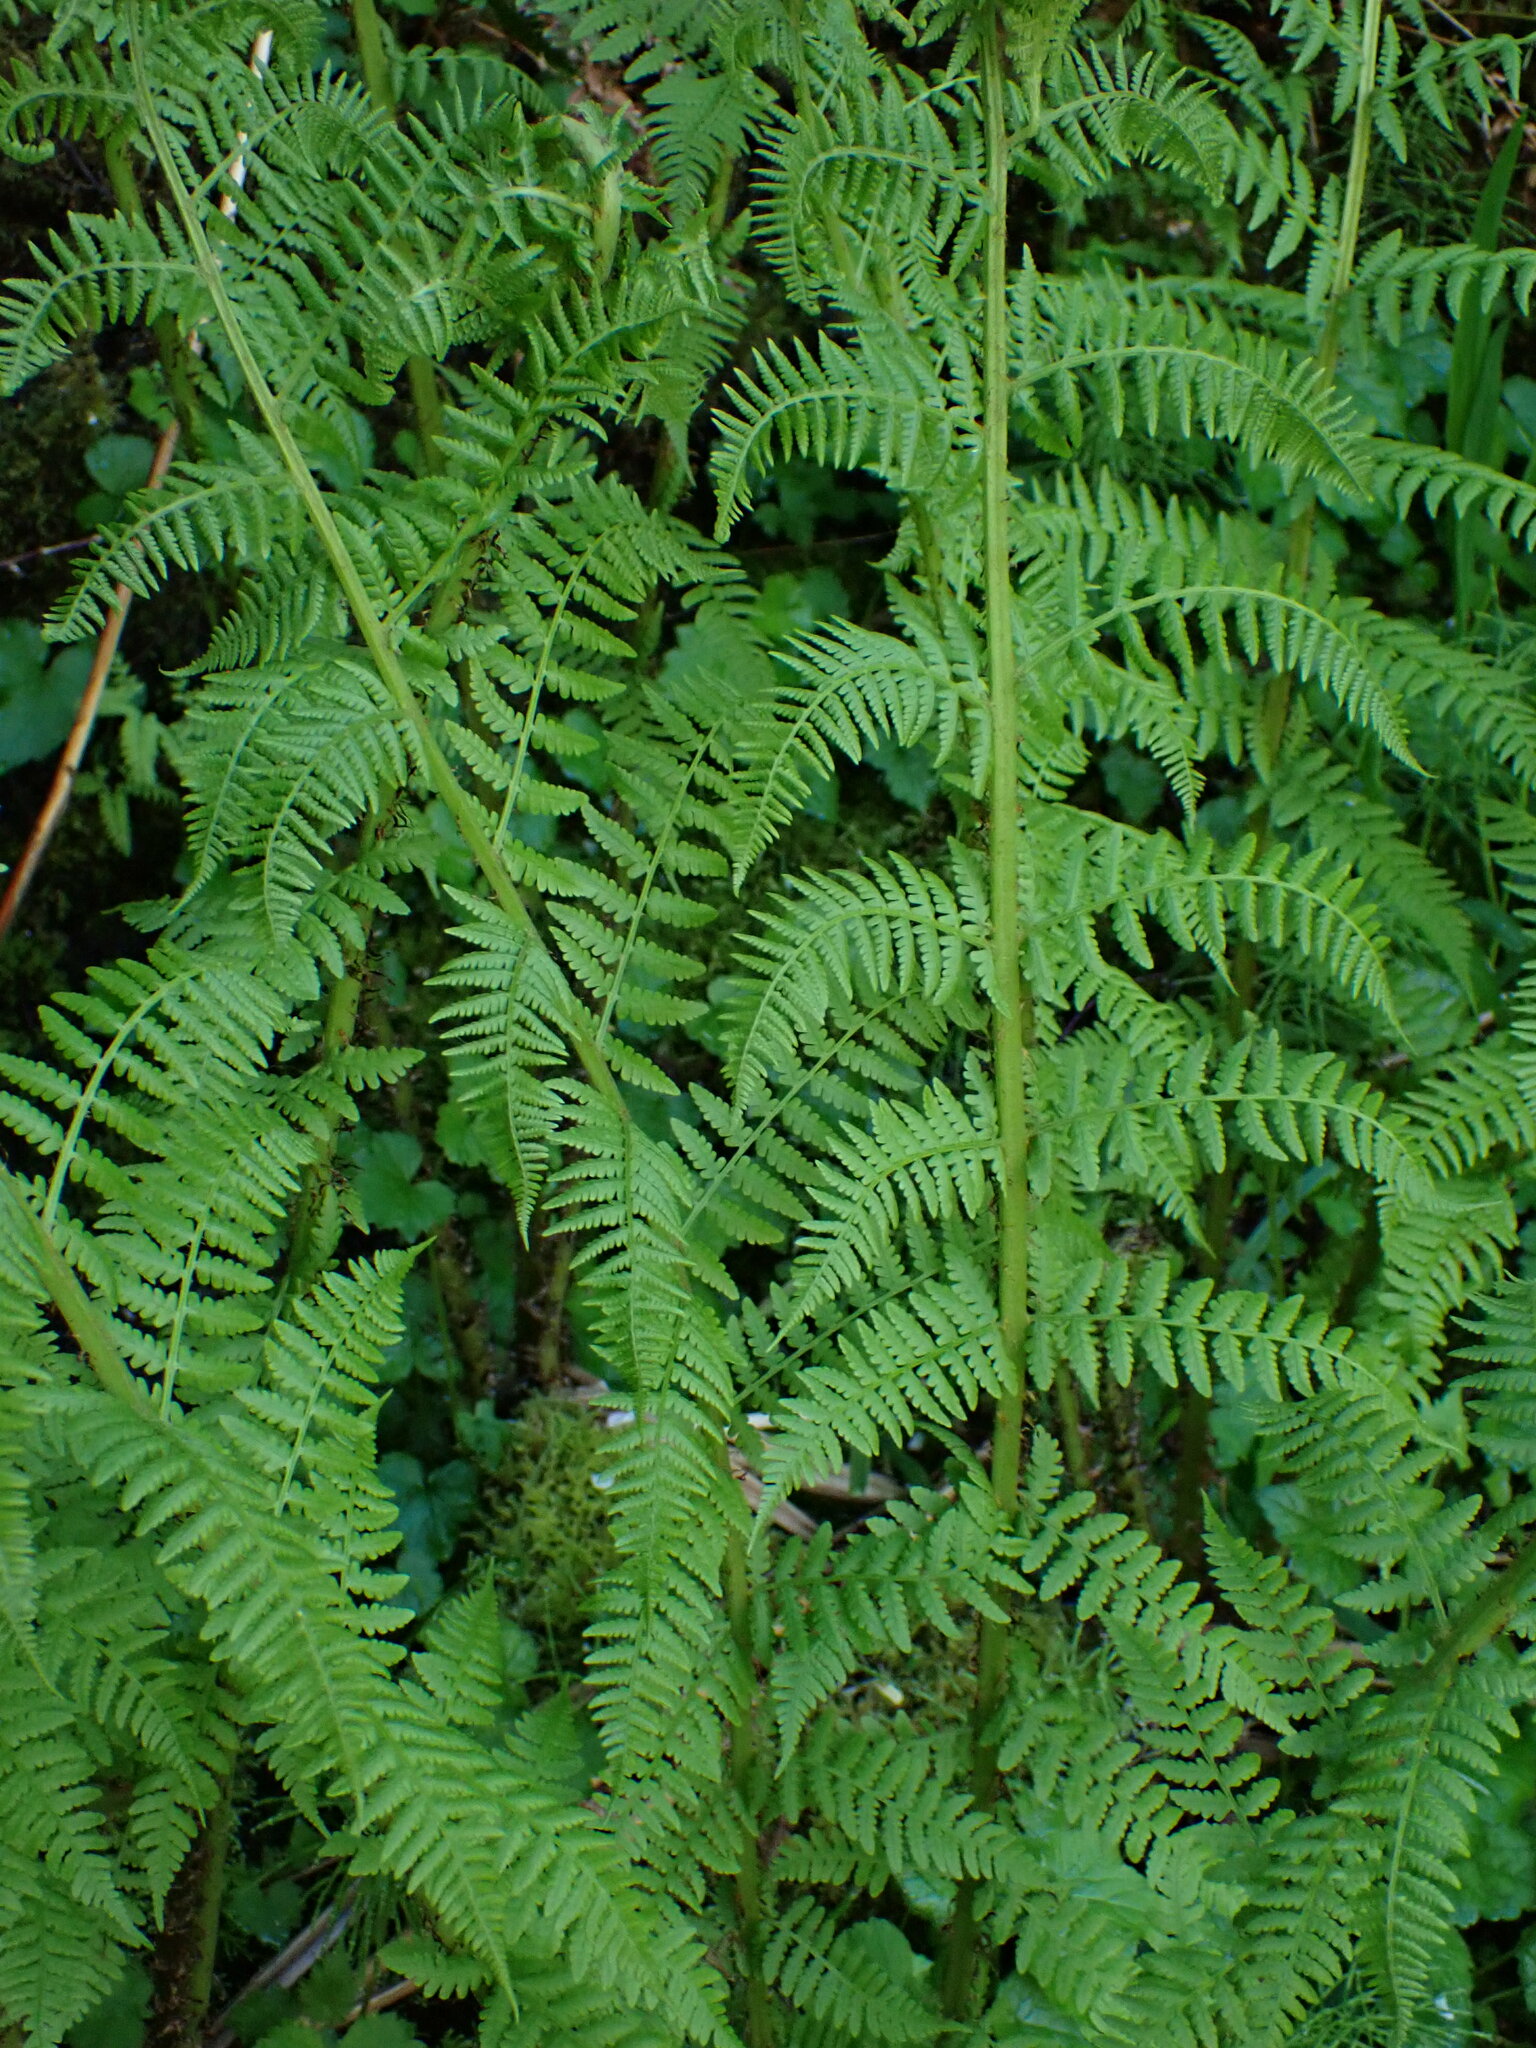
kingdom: Plantae
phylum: Tracheophyta
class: Polypodiopsida
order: Polypodiales
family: Athyriaceae
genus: Athyrium
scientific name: Athyrium filix-femina
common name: Lady fern
